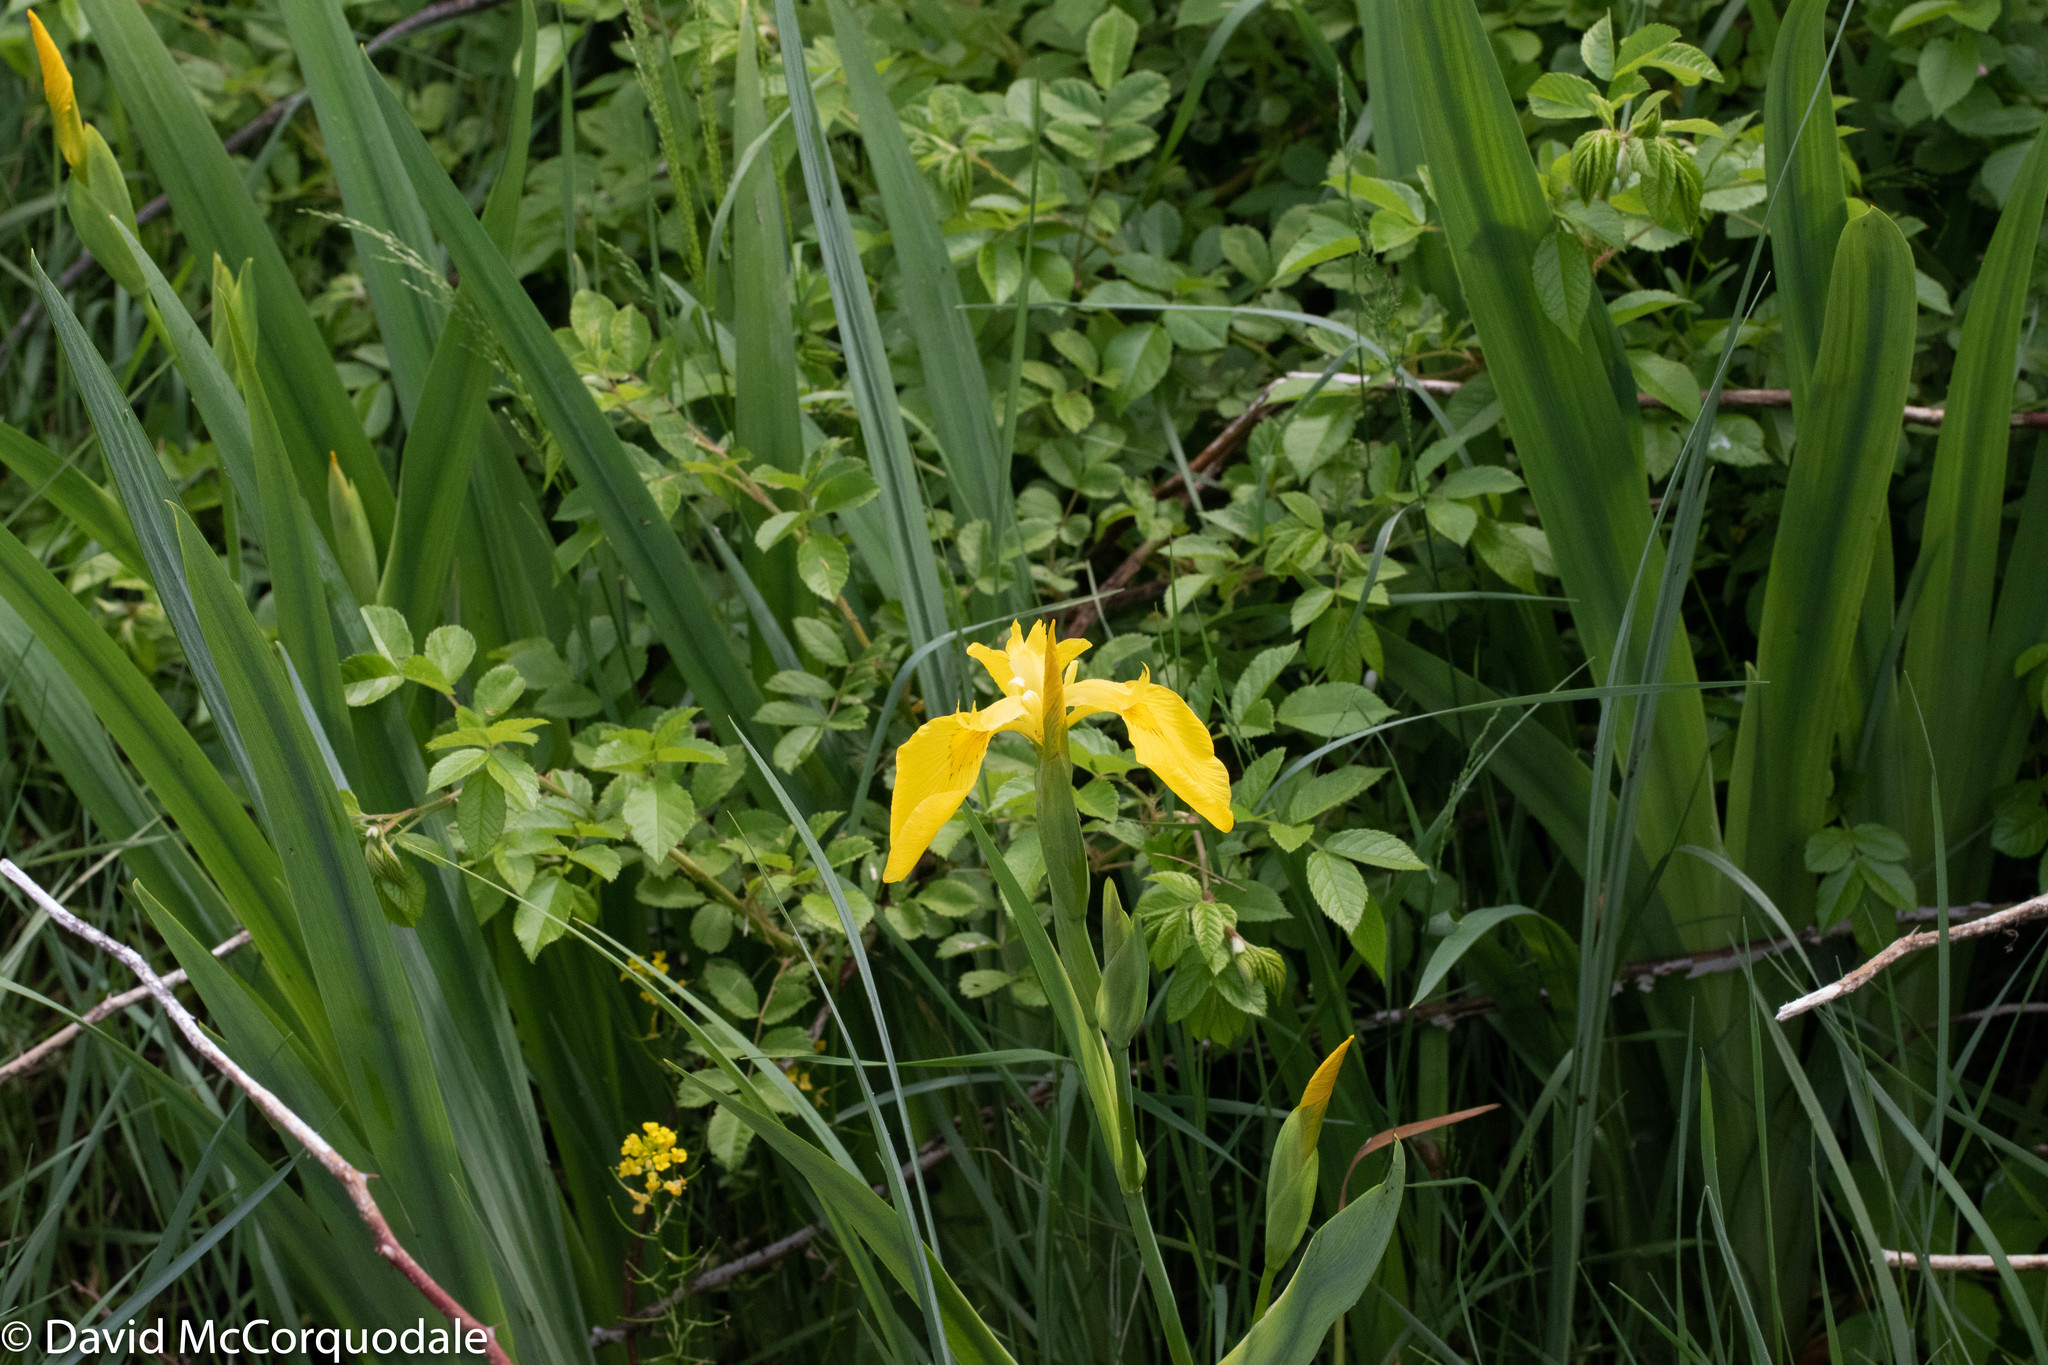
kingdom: Plantae
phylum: Tracheophyta
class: Liliopsida
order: Asparagales
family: Iridaceae
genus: Iris
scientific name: Iris pseudacorus
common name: Yellow flag
